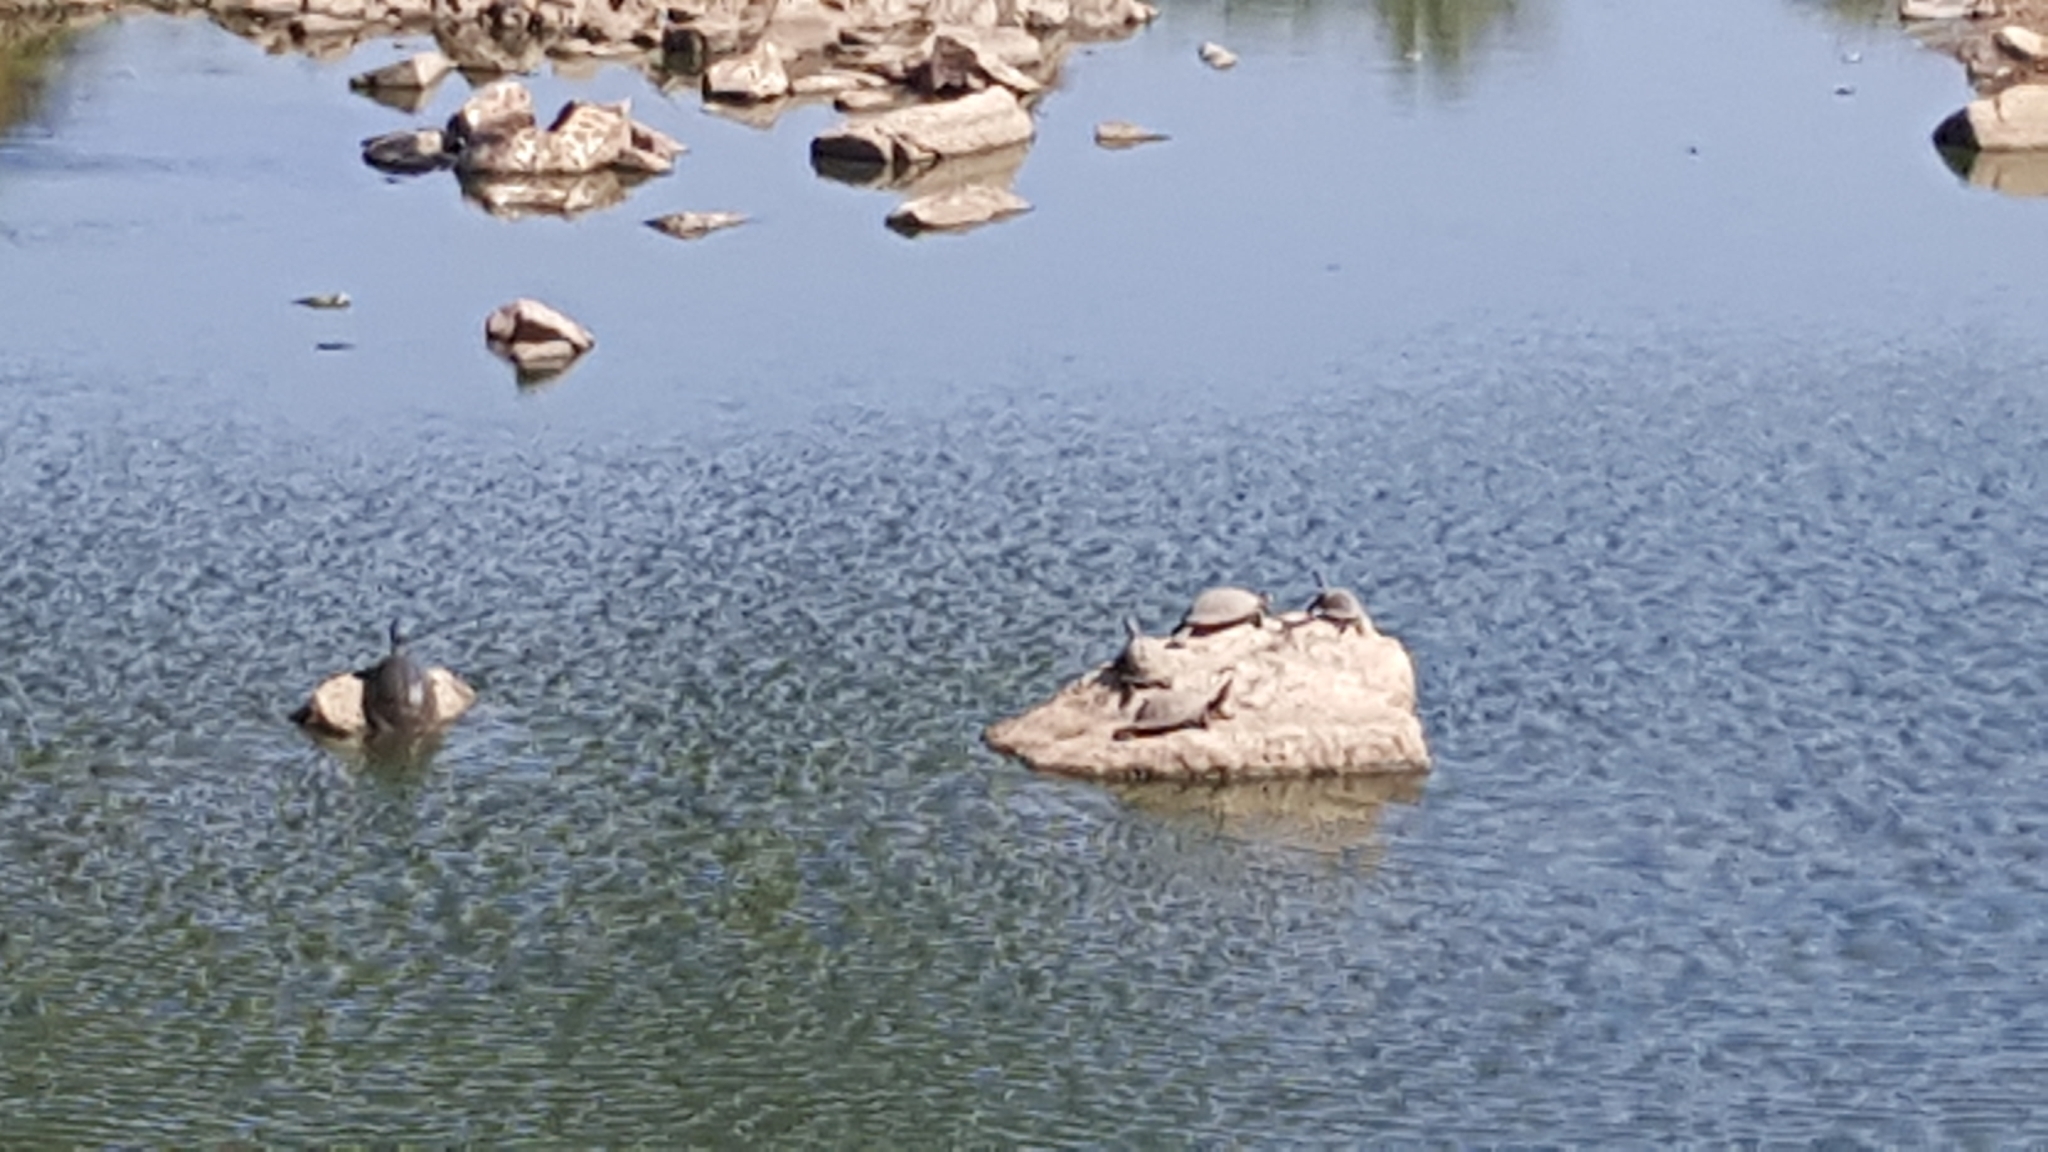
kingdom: Animalia
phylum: Chordata
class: Testudines
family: Pelomedusidae
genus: Pelusios
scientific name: Pelusios sinuatus
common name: Serrated hinged terrapin
